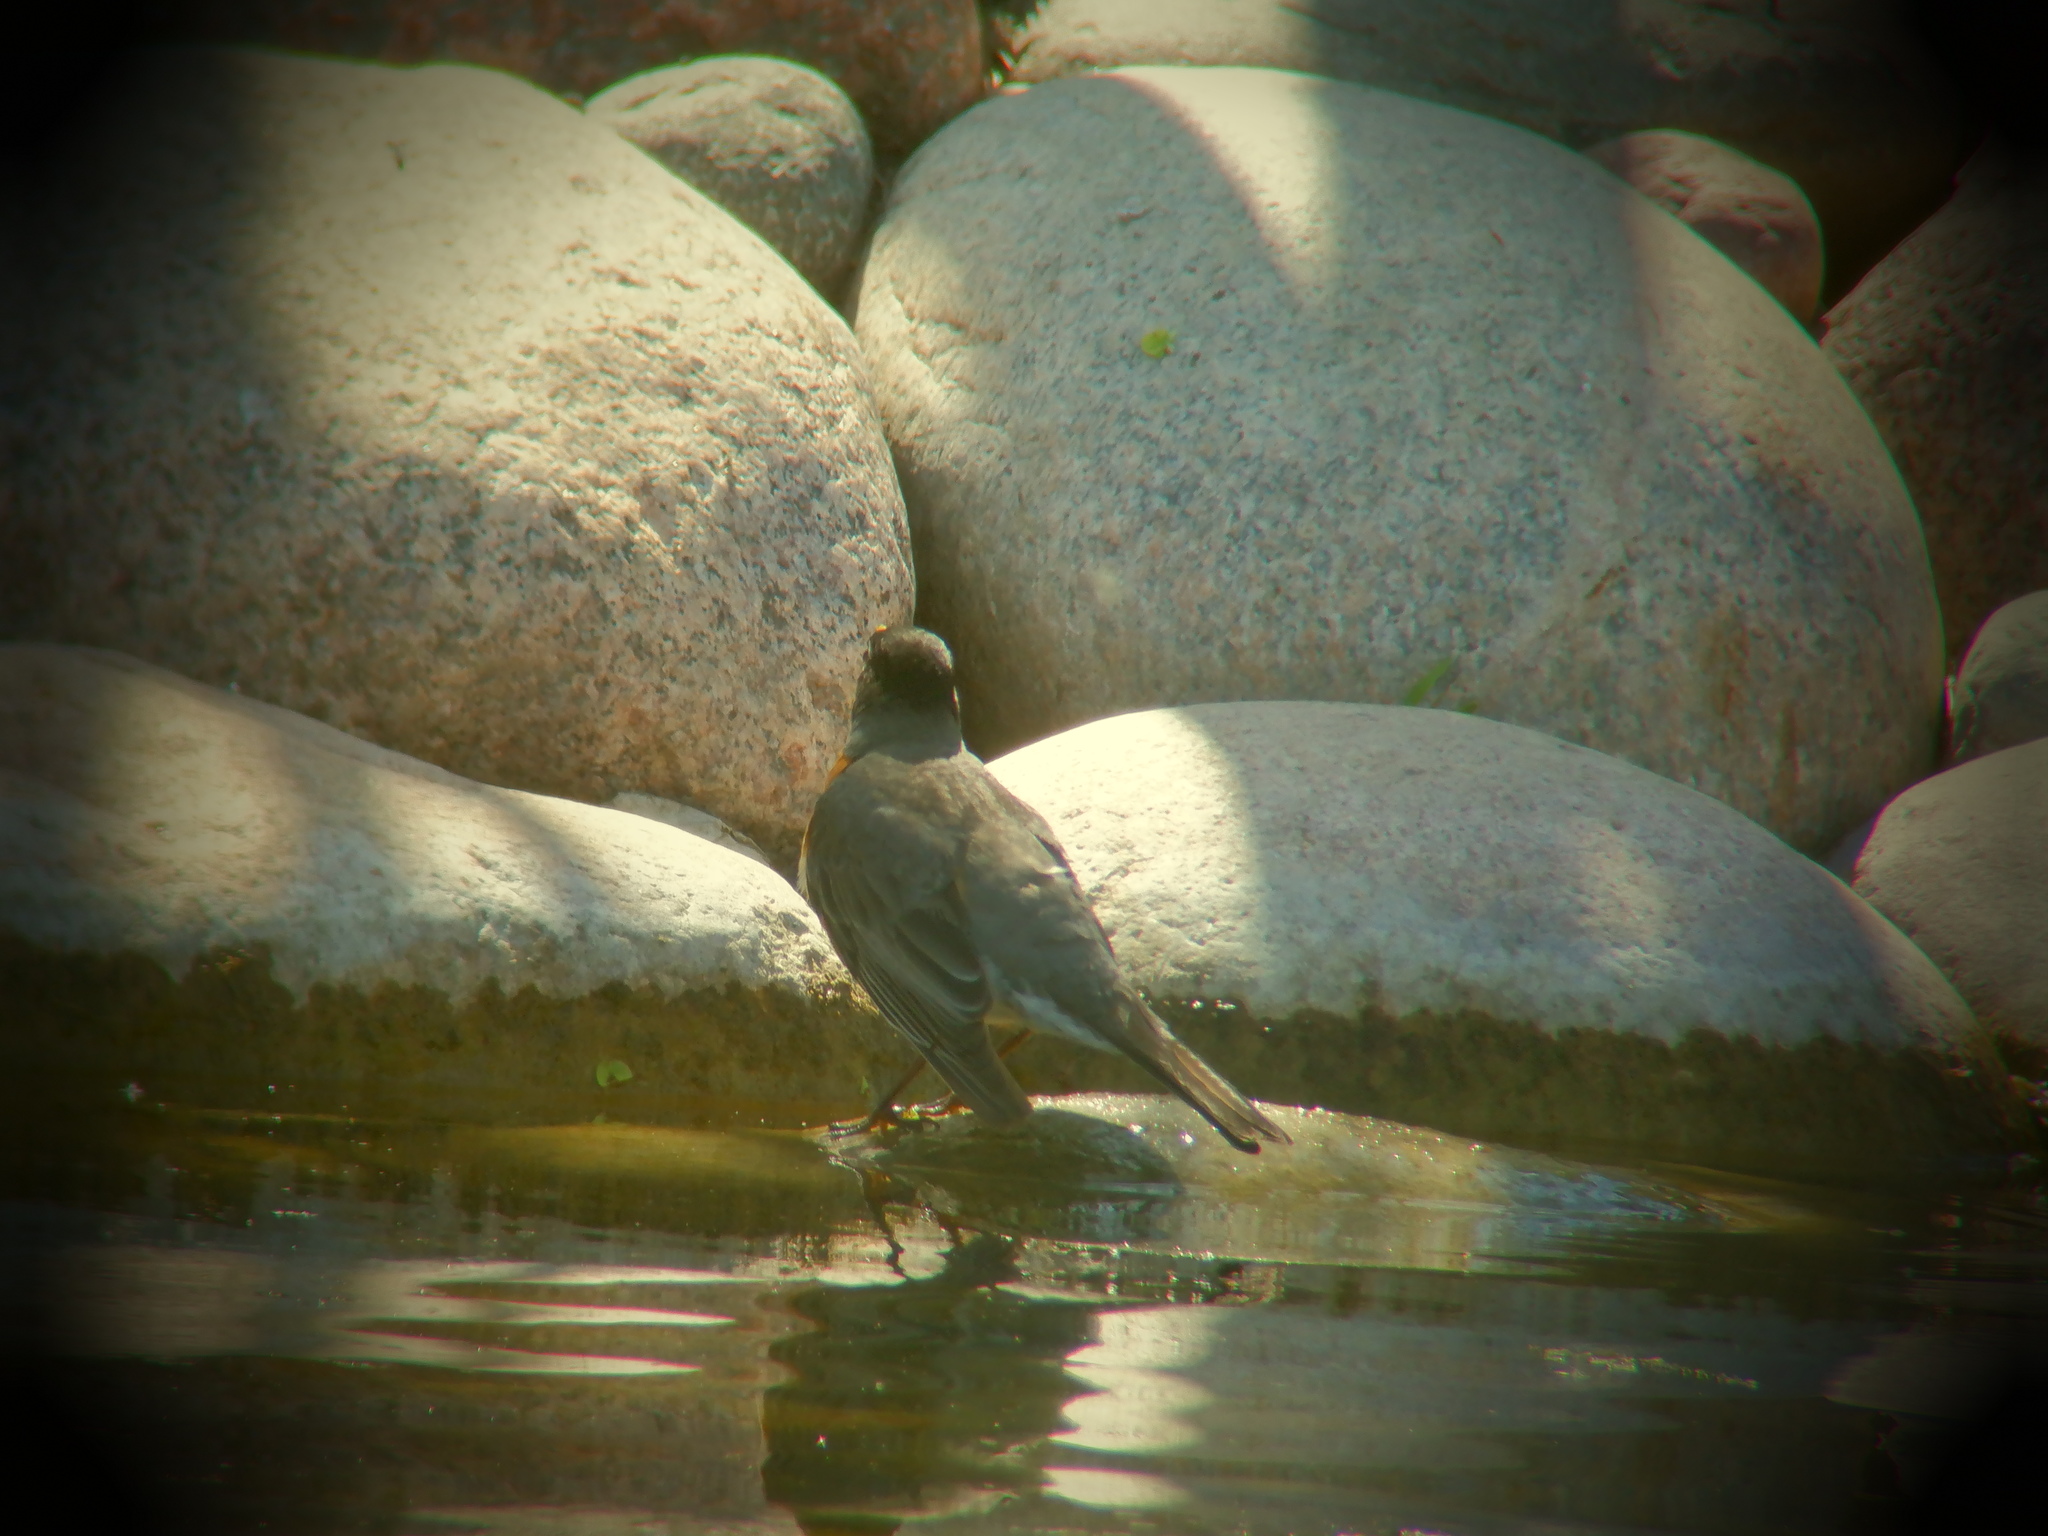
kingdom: Animalia
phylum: Chordata
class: Aves
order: Passeriformes
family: Turdidae
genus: Turdus
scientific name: Turdus migratorius
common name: American robin
